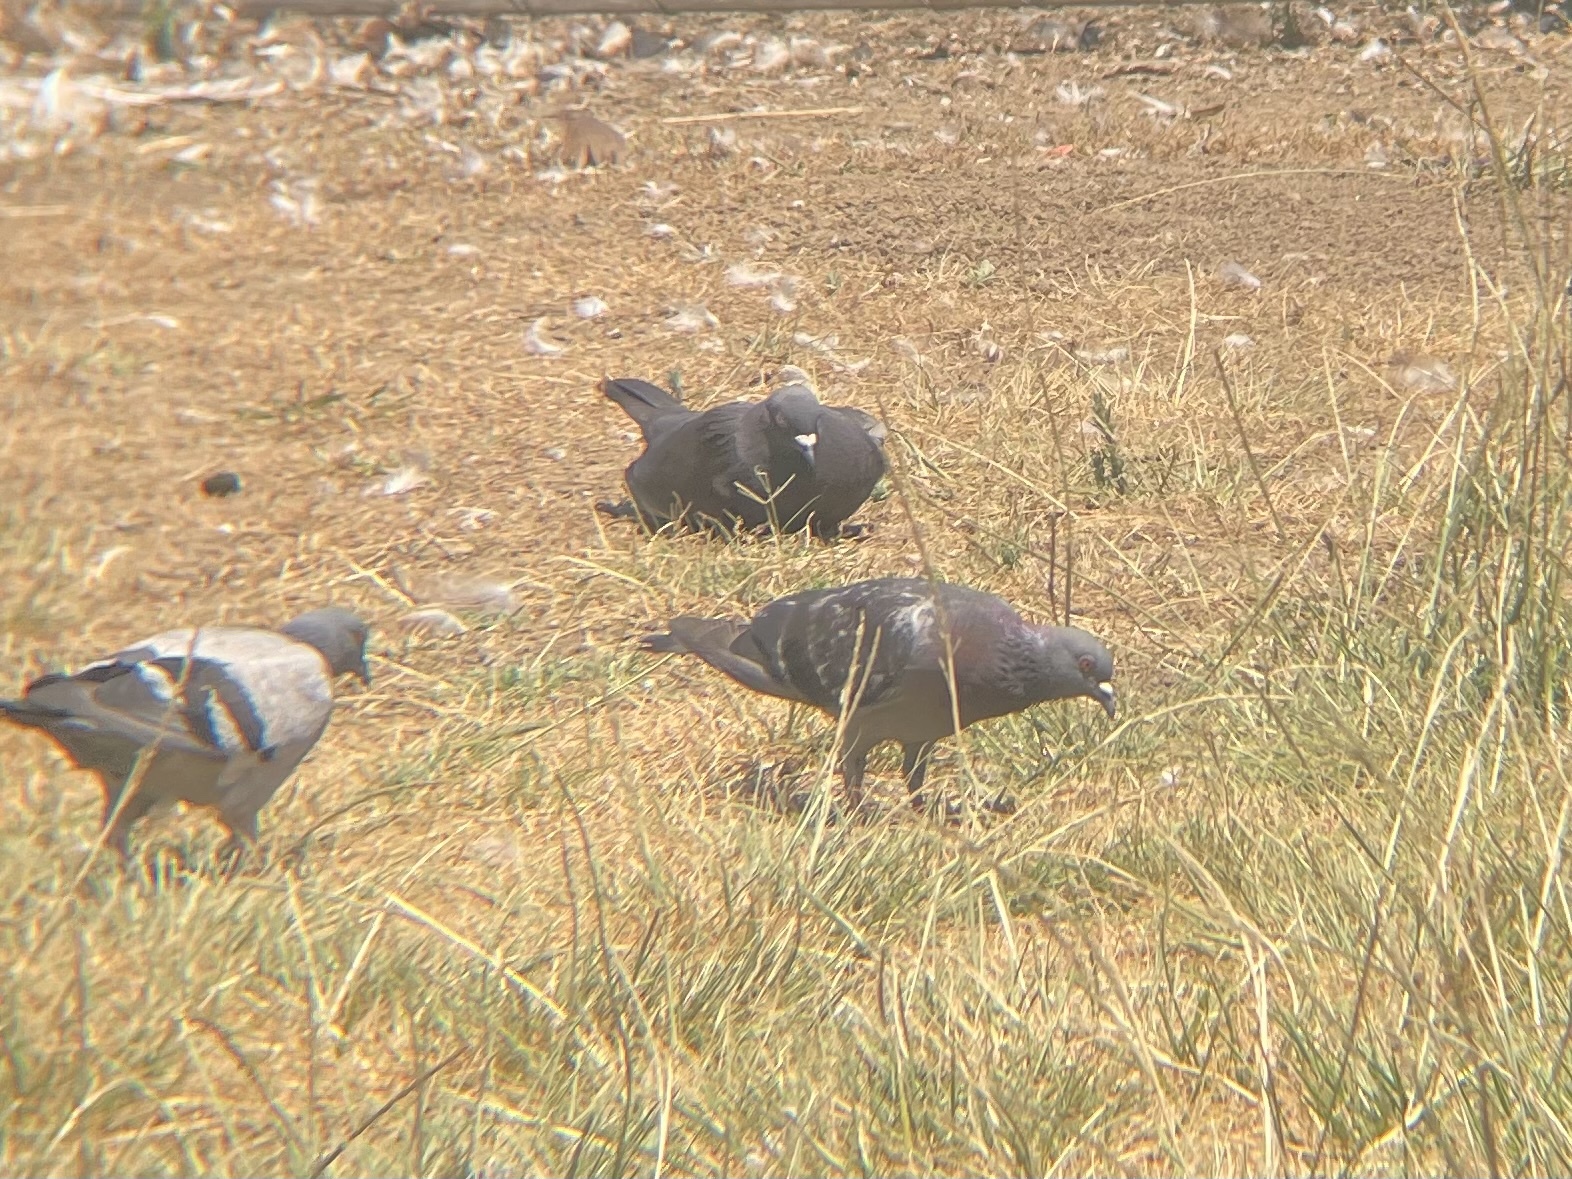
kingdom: Animalia
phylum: Chordata
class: Aves
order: Columbiformes
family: Columbidae
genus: Columba
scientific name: Columba livia
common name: Rock pigeon
